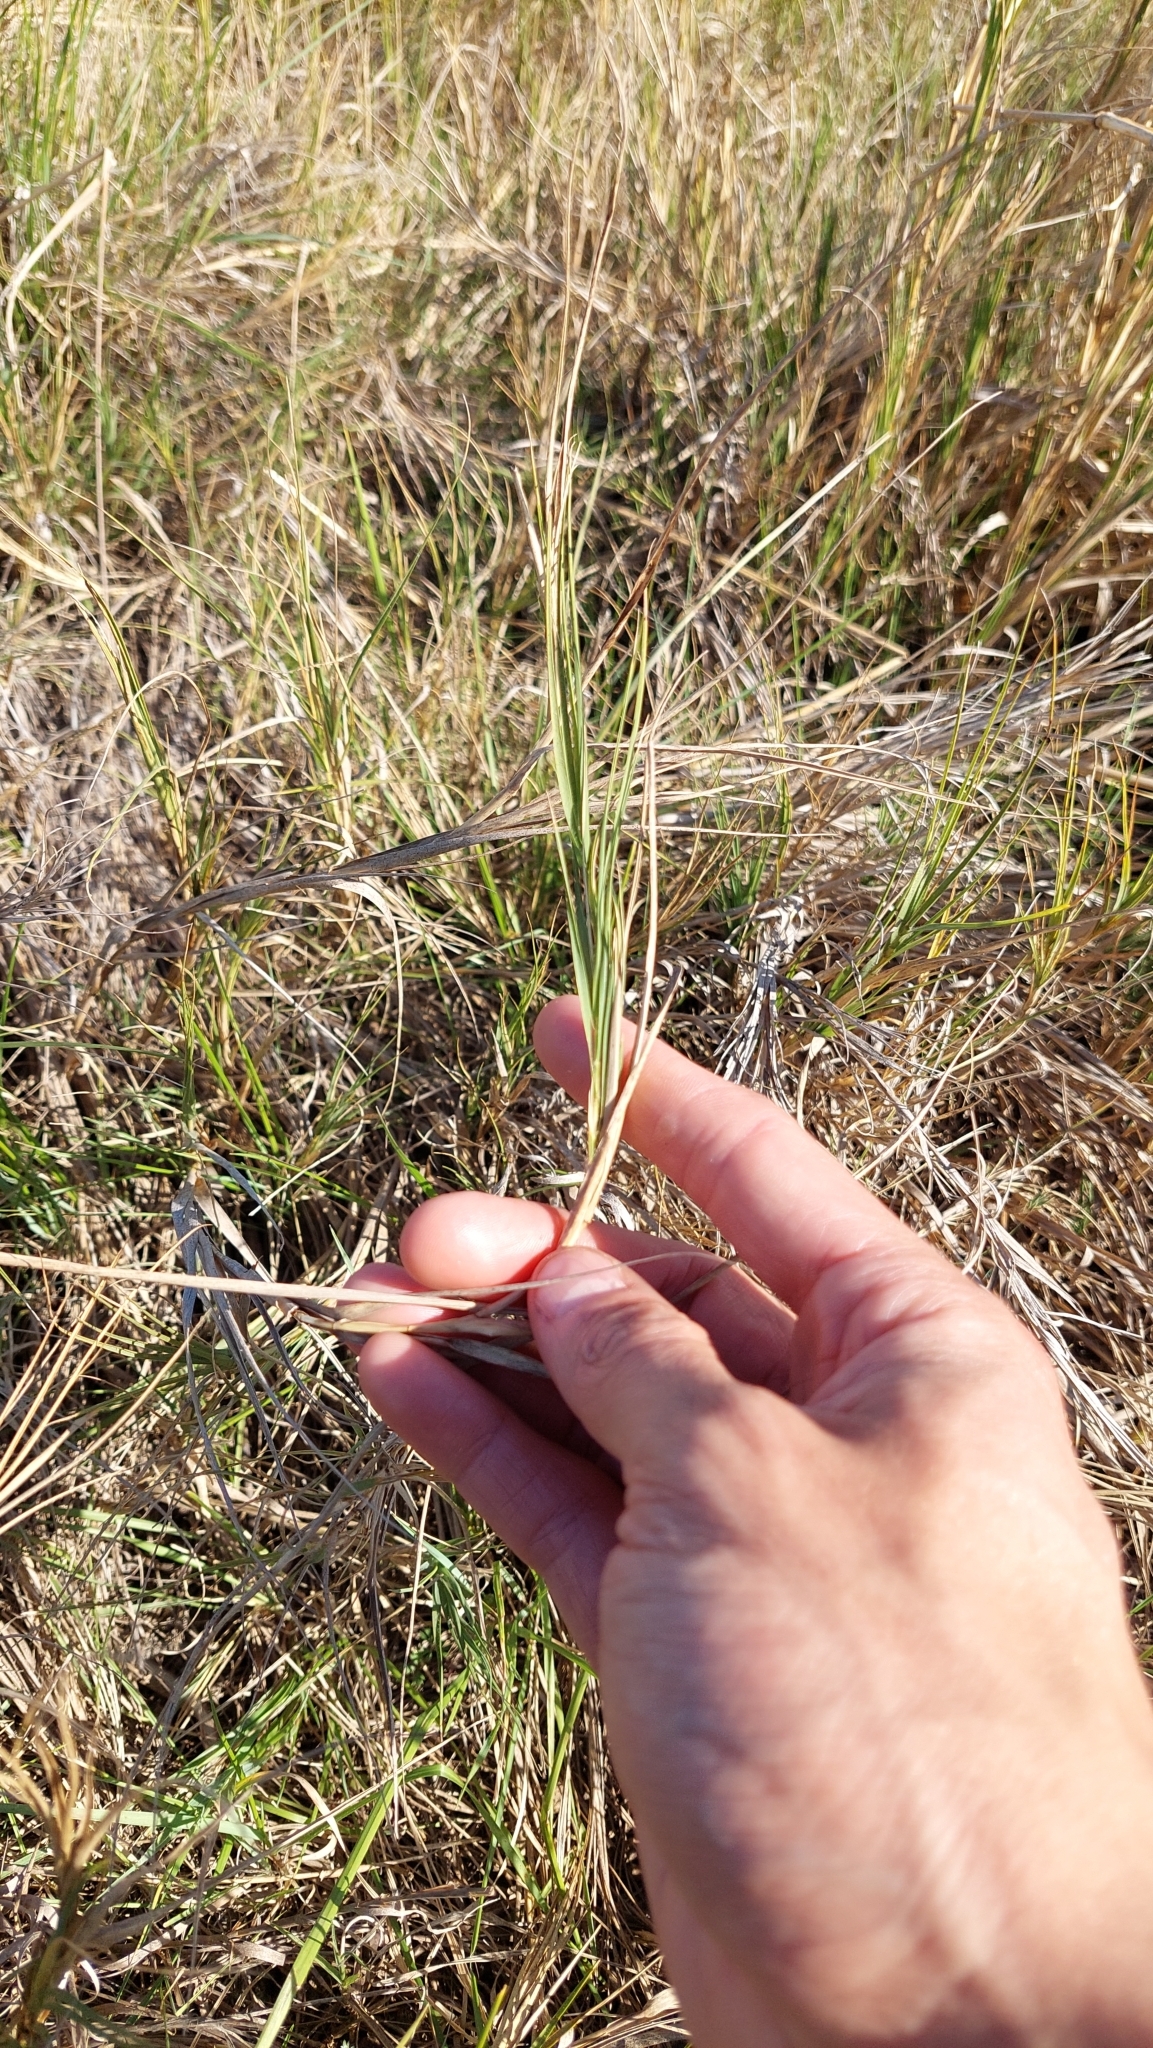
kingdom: Plantae
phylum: Tracheophyta
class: Liliopsida
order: Poales
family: Poaceae
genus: Distichlis
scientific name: Distichlis spicata
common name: Saltgrass
